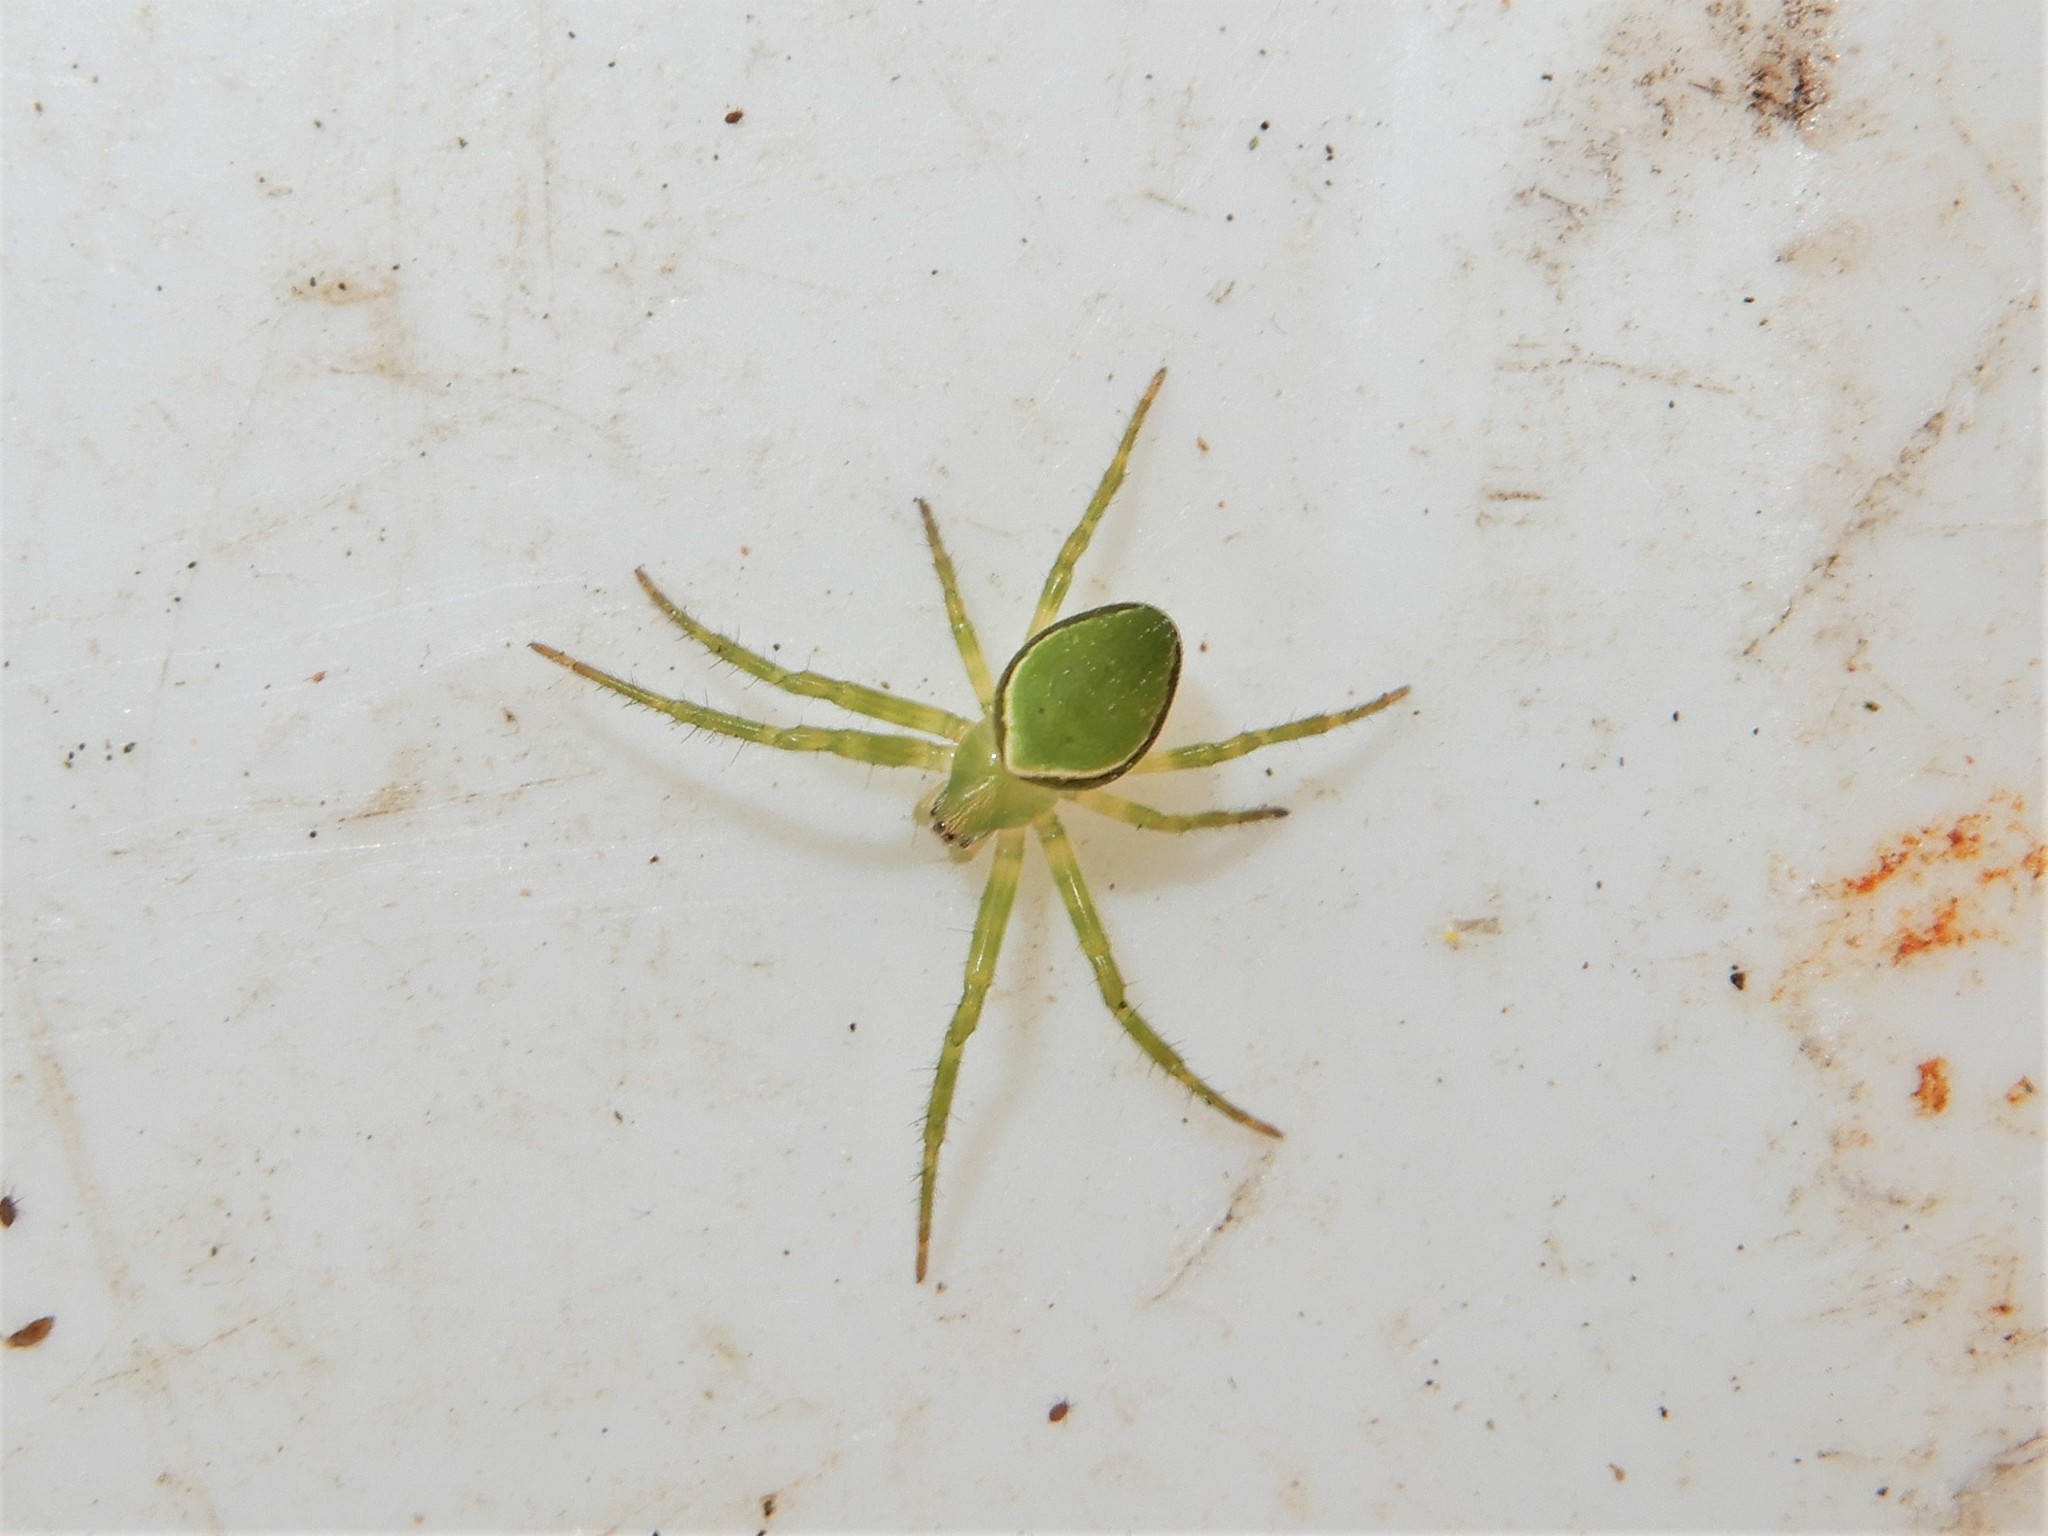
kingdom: Animalia
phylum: Arthropoda
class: Arachnida
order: Araneae
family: Araneidae
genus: Colaranea
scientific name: Colaranea viriditas
